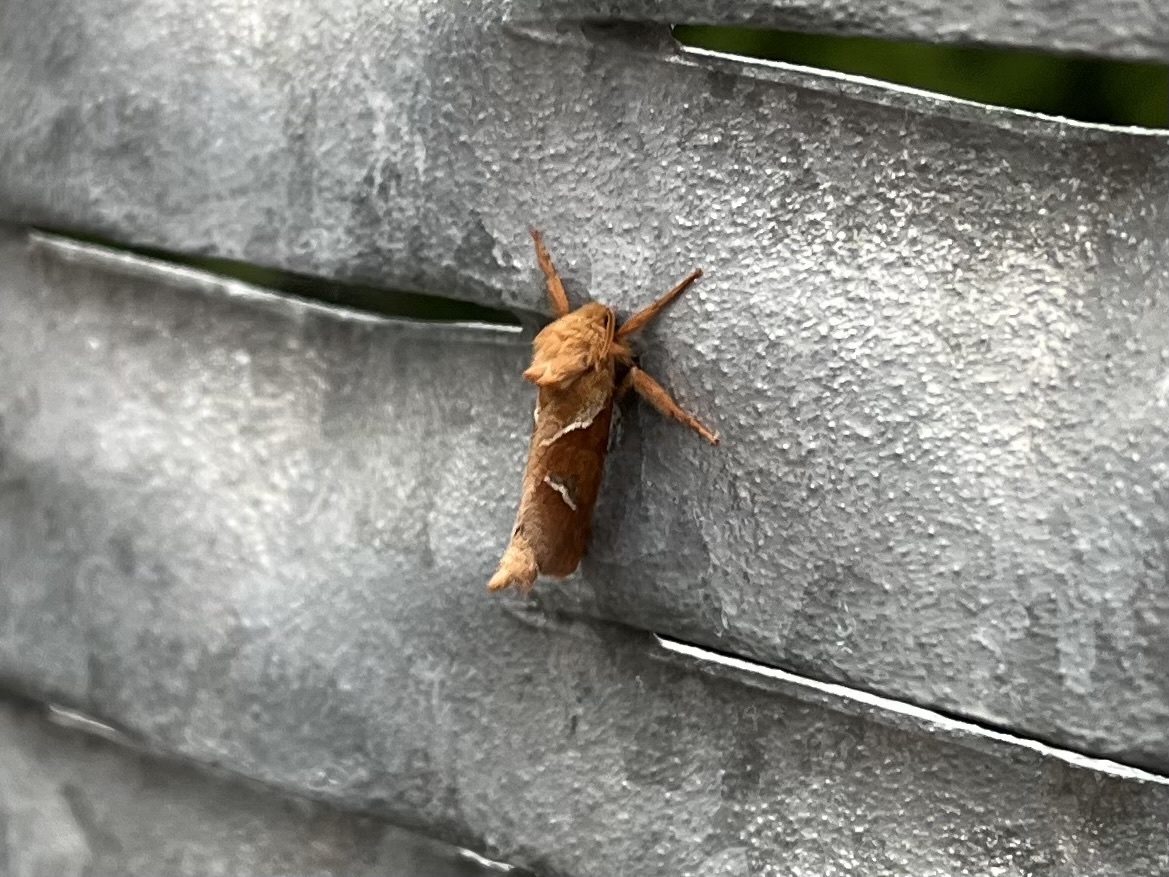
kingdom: Animalia
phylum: Arthropoda
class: Insecta
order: Lepidoptera
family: Hepialidae
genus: Triodia
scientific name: Triodia sylvina
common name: Orange swift
